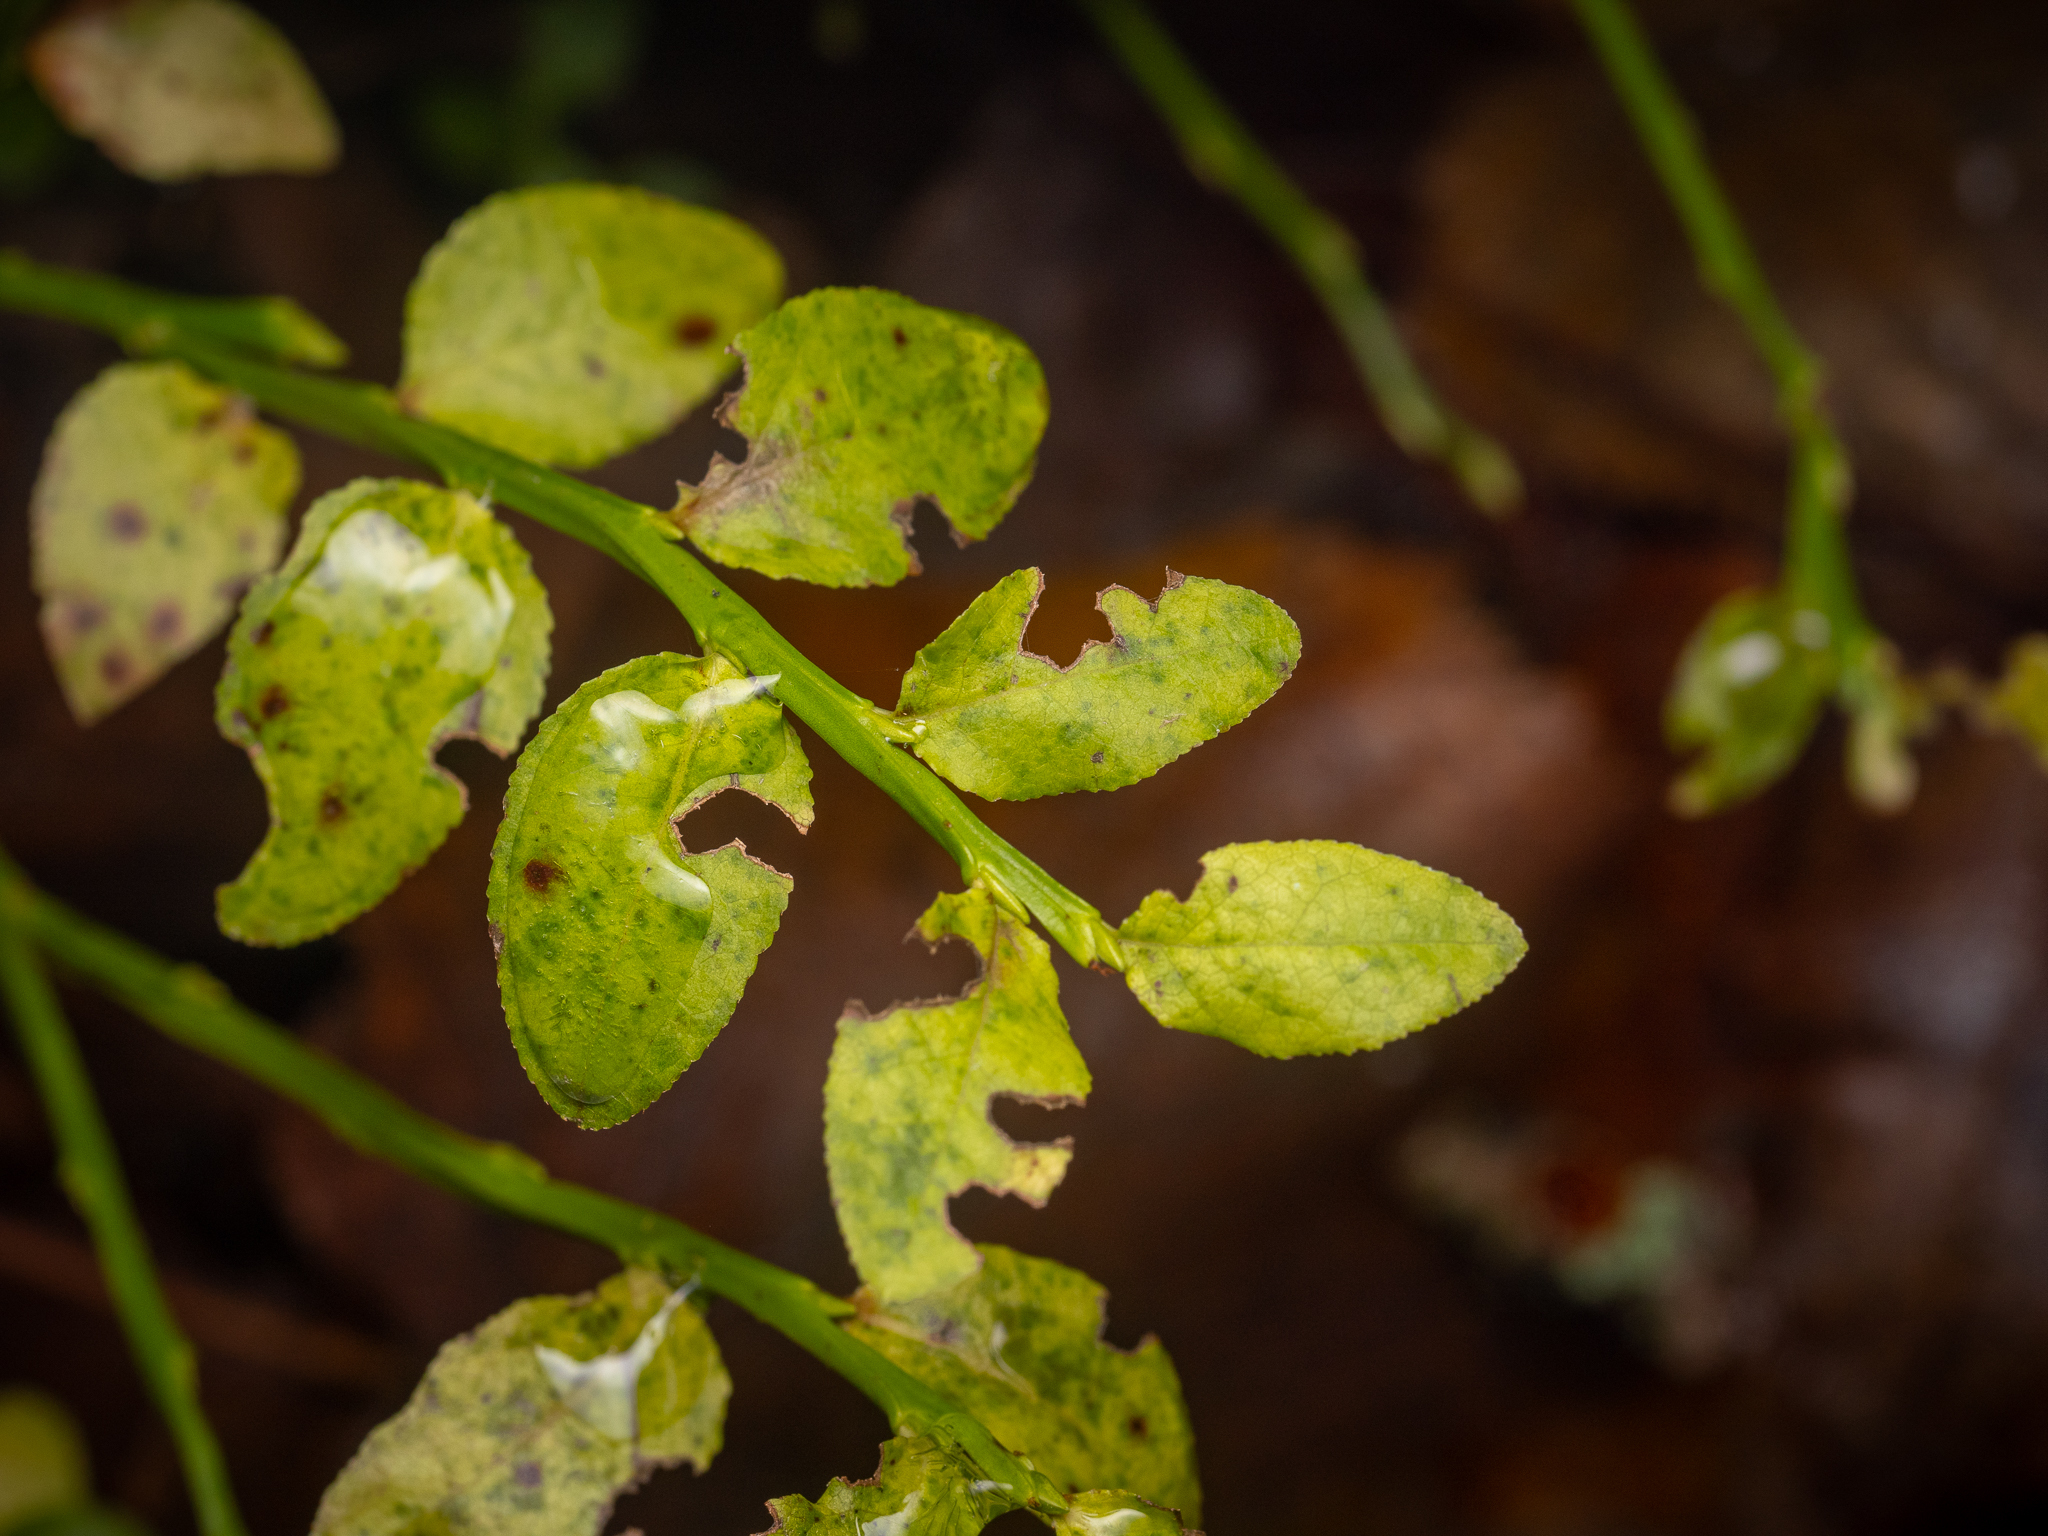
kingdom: Plantae
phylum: Tracheophyta
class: Magnoliopsida
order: Ericales
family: Ericaceae
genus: Vaccinium
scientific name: Vaccinium myrtillus
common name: Bilberry
